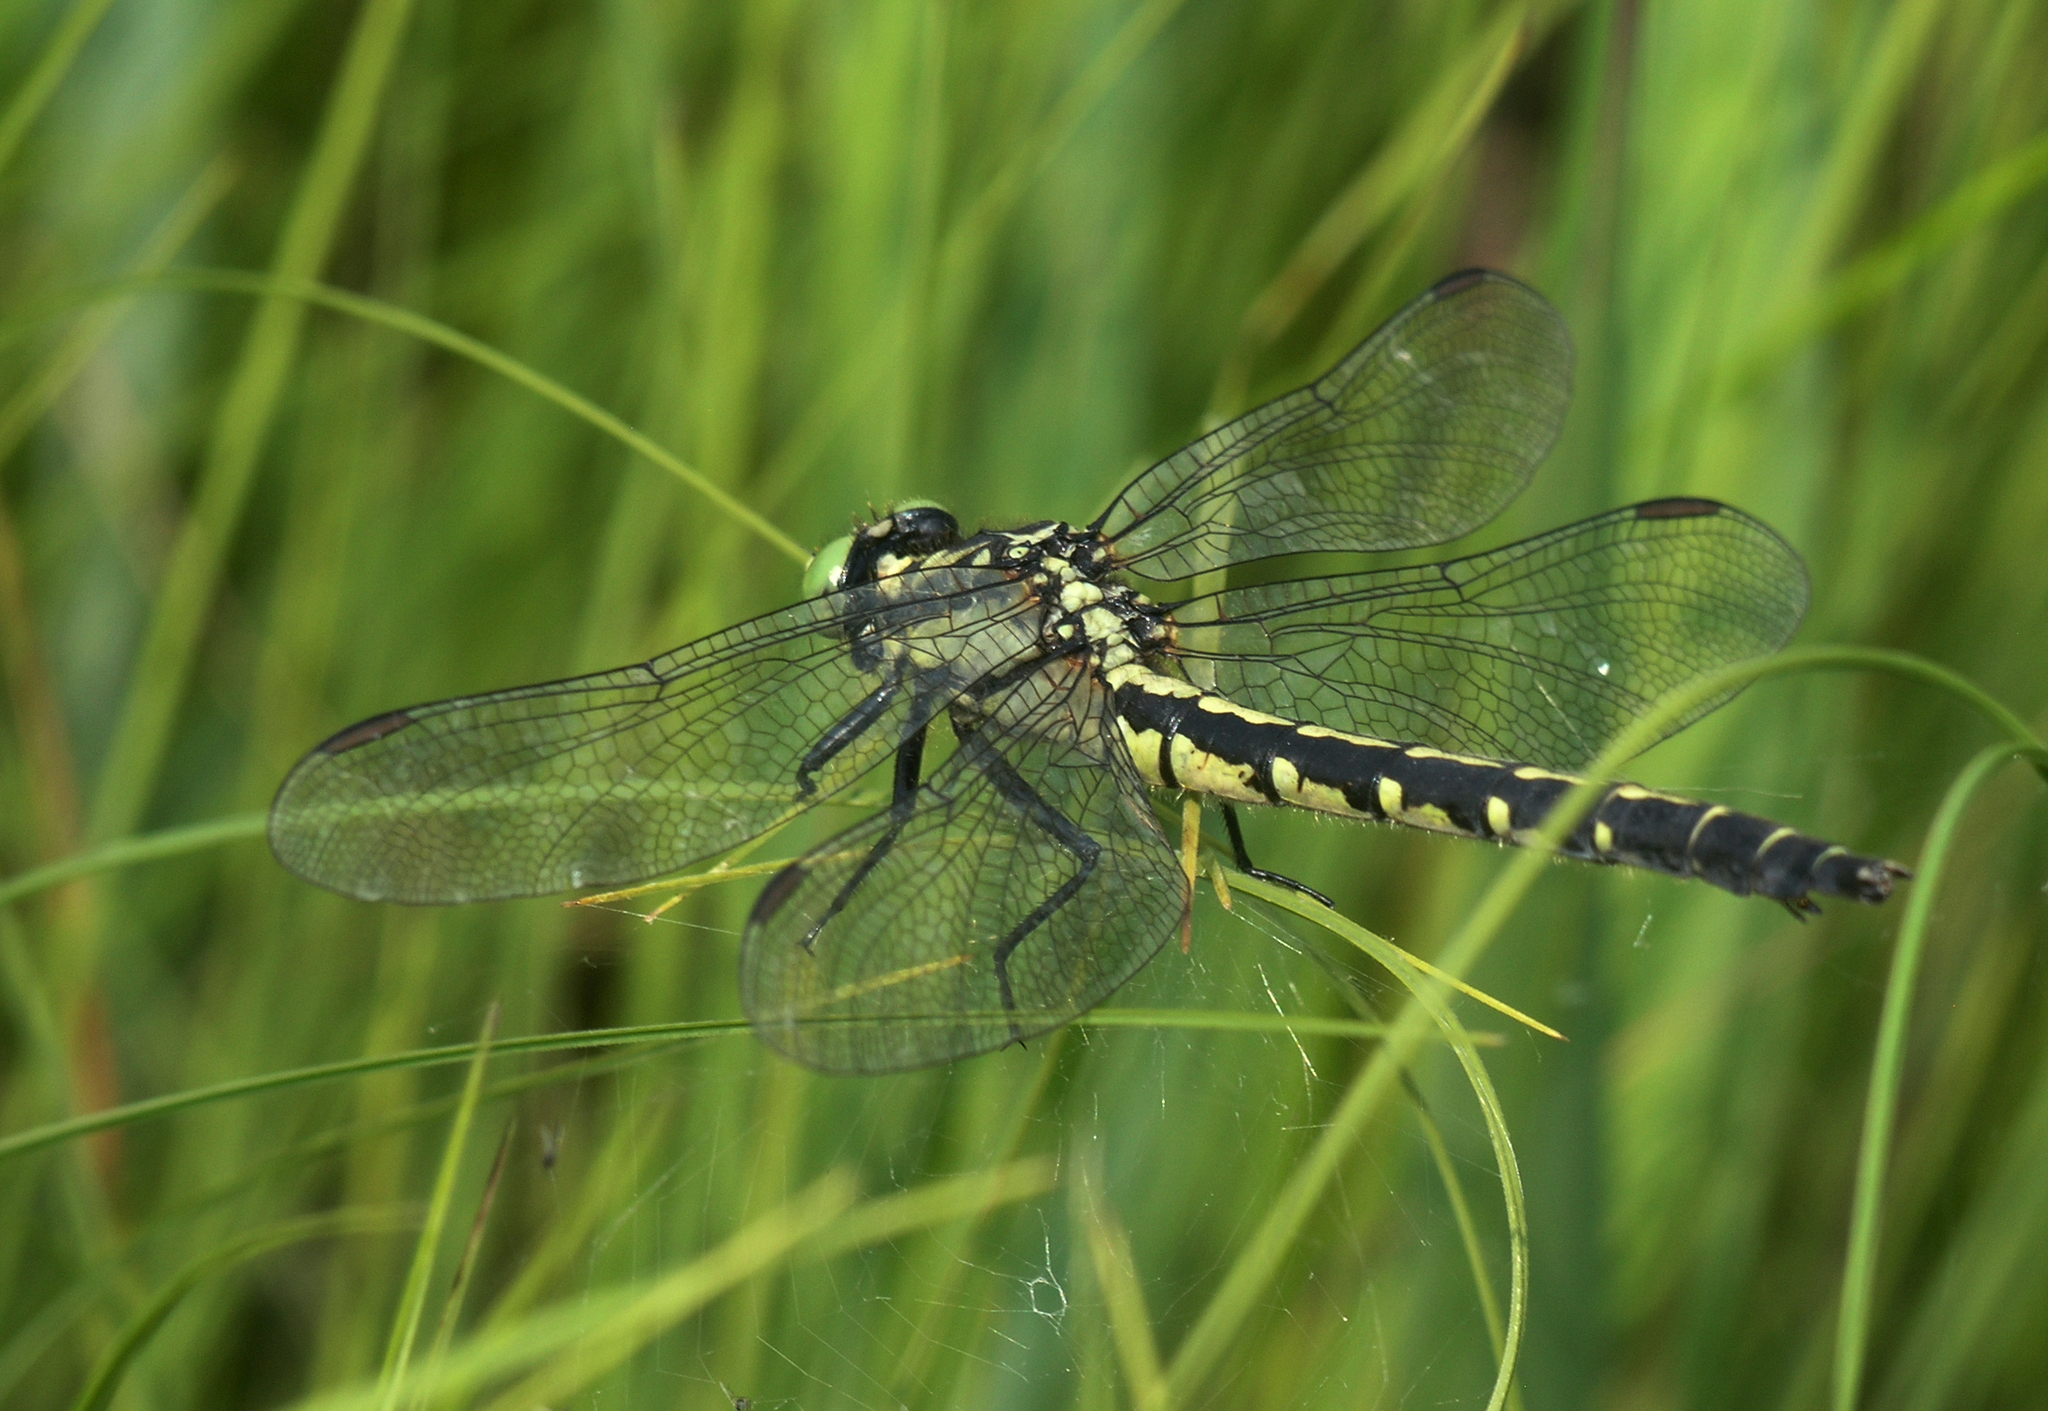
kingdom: Animalia
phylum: Arthropoda
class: Insecta
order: Odonata
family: Gomphidae
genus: Trigomphus
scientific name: Trigomphus nigripes
